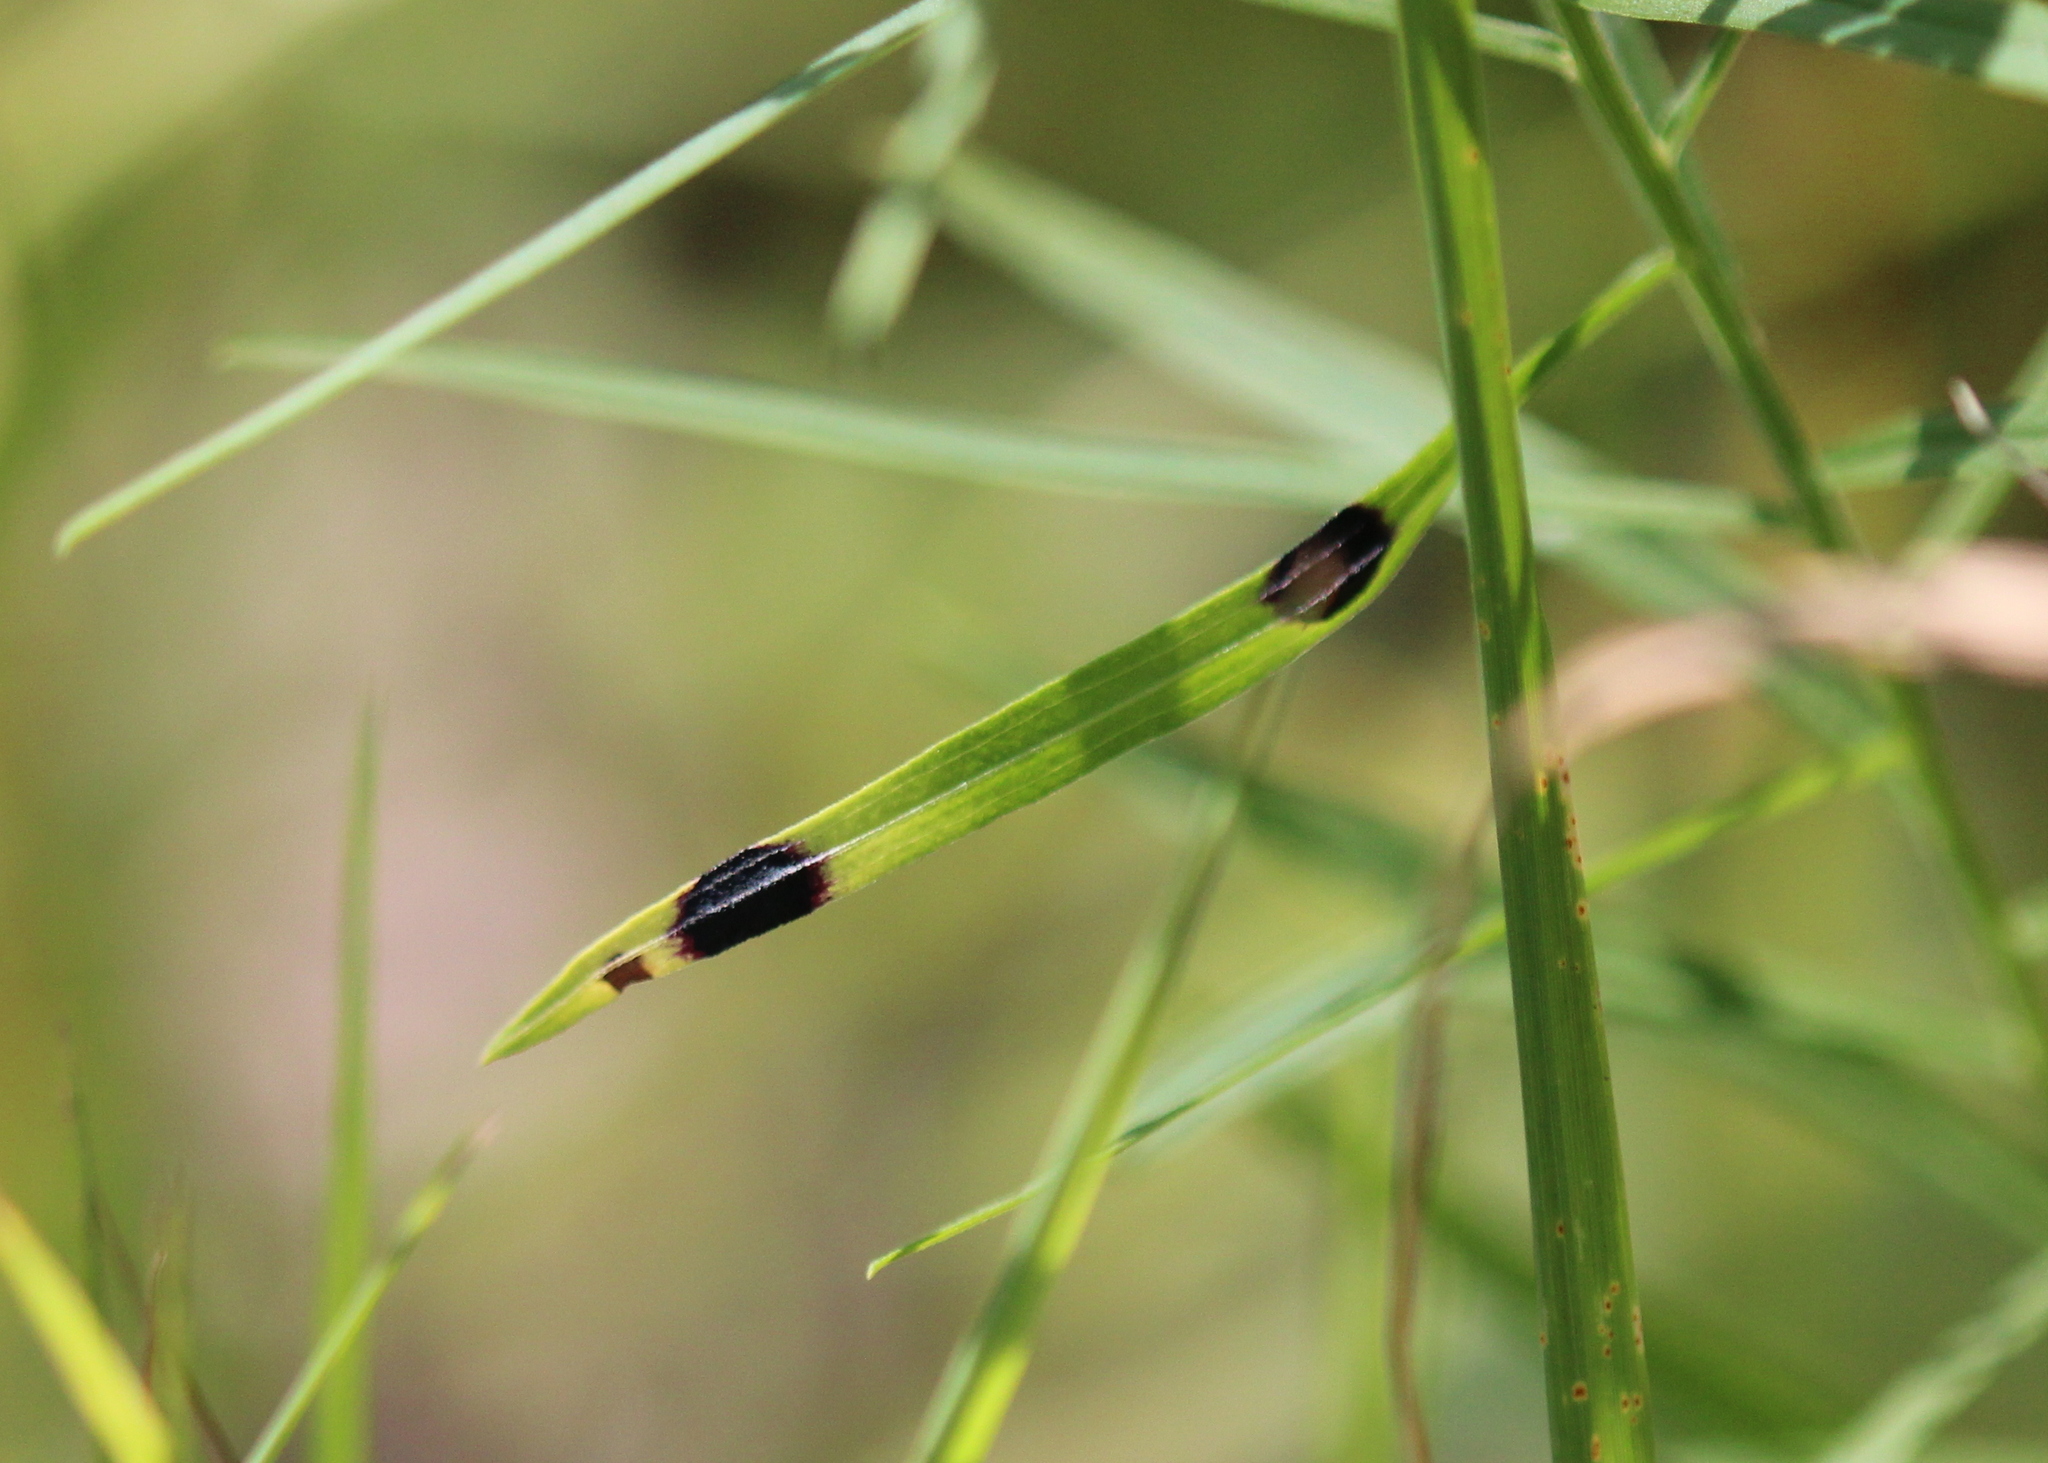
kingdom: Animalia
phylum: Arthropoda
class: Insecta
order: Diptera
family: Cecidomyiidae
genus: Asteromyia
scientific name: Asteromyia euthamiae
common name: Euthamia leaf gall midge
